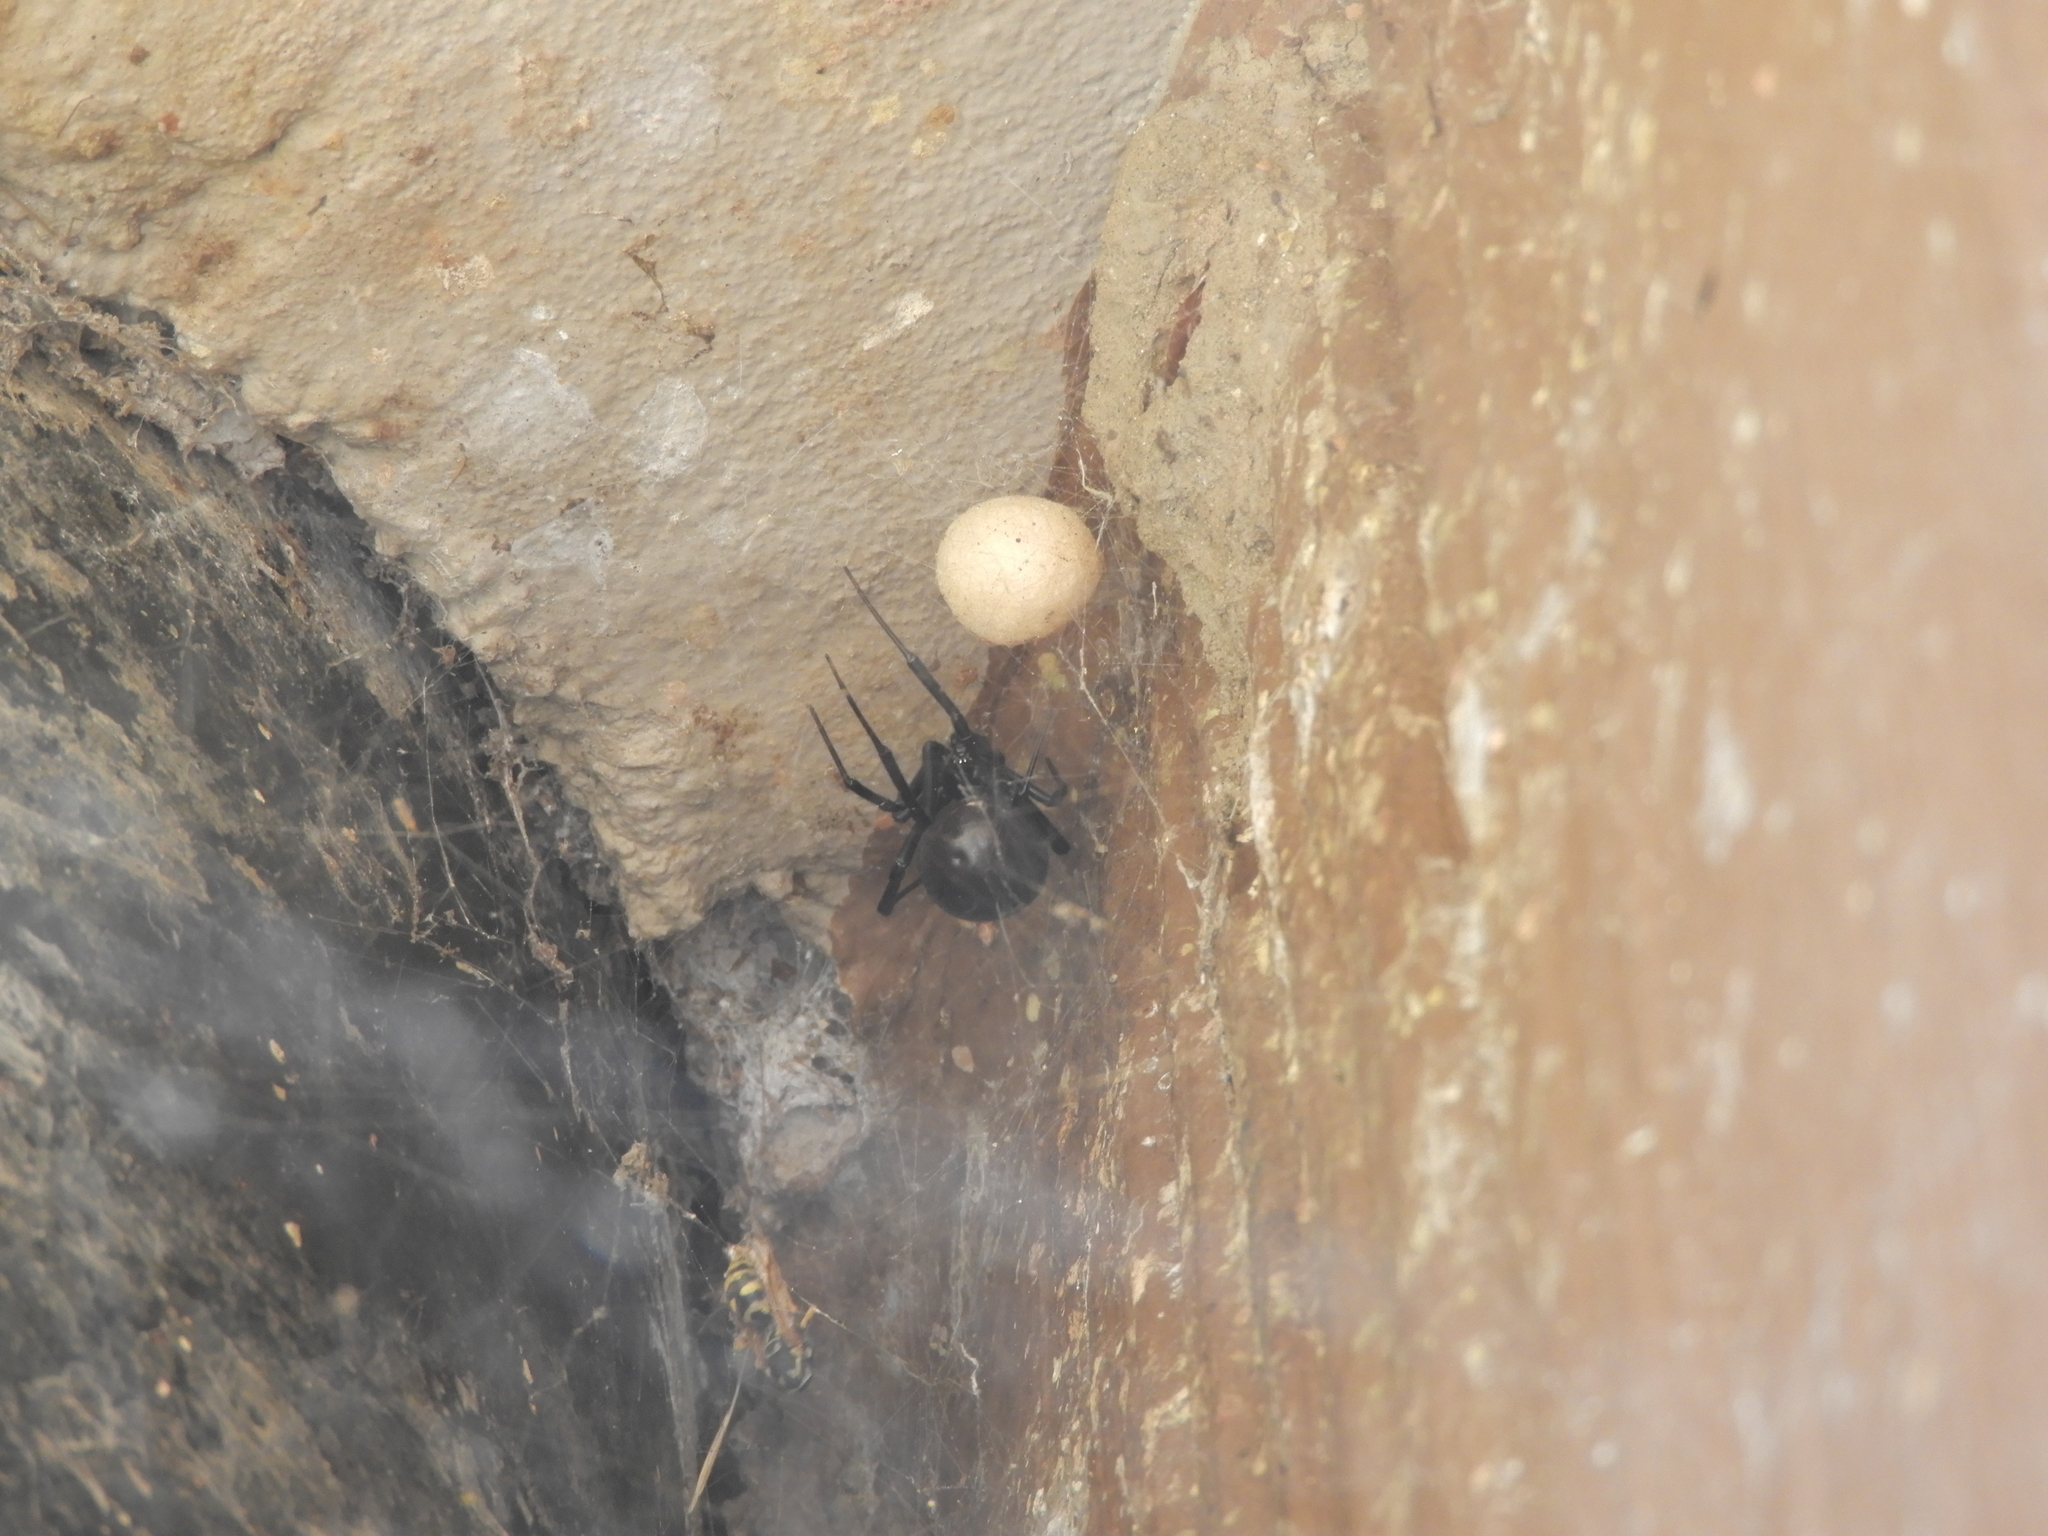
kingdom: Animalia
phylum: Arthropoda
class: Arachnida
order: Araneae
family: Theridiidae
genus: Latrodectus
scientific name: Latrodectus hesperus
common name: Western black widow
